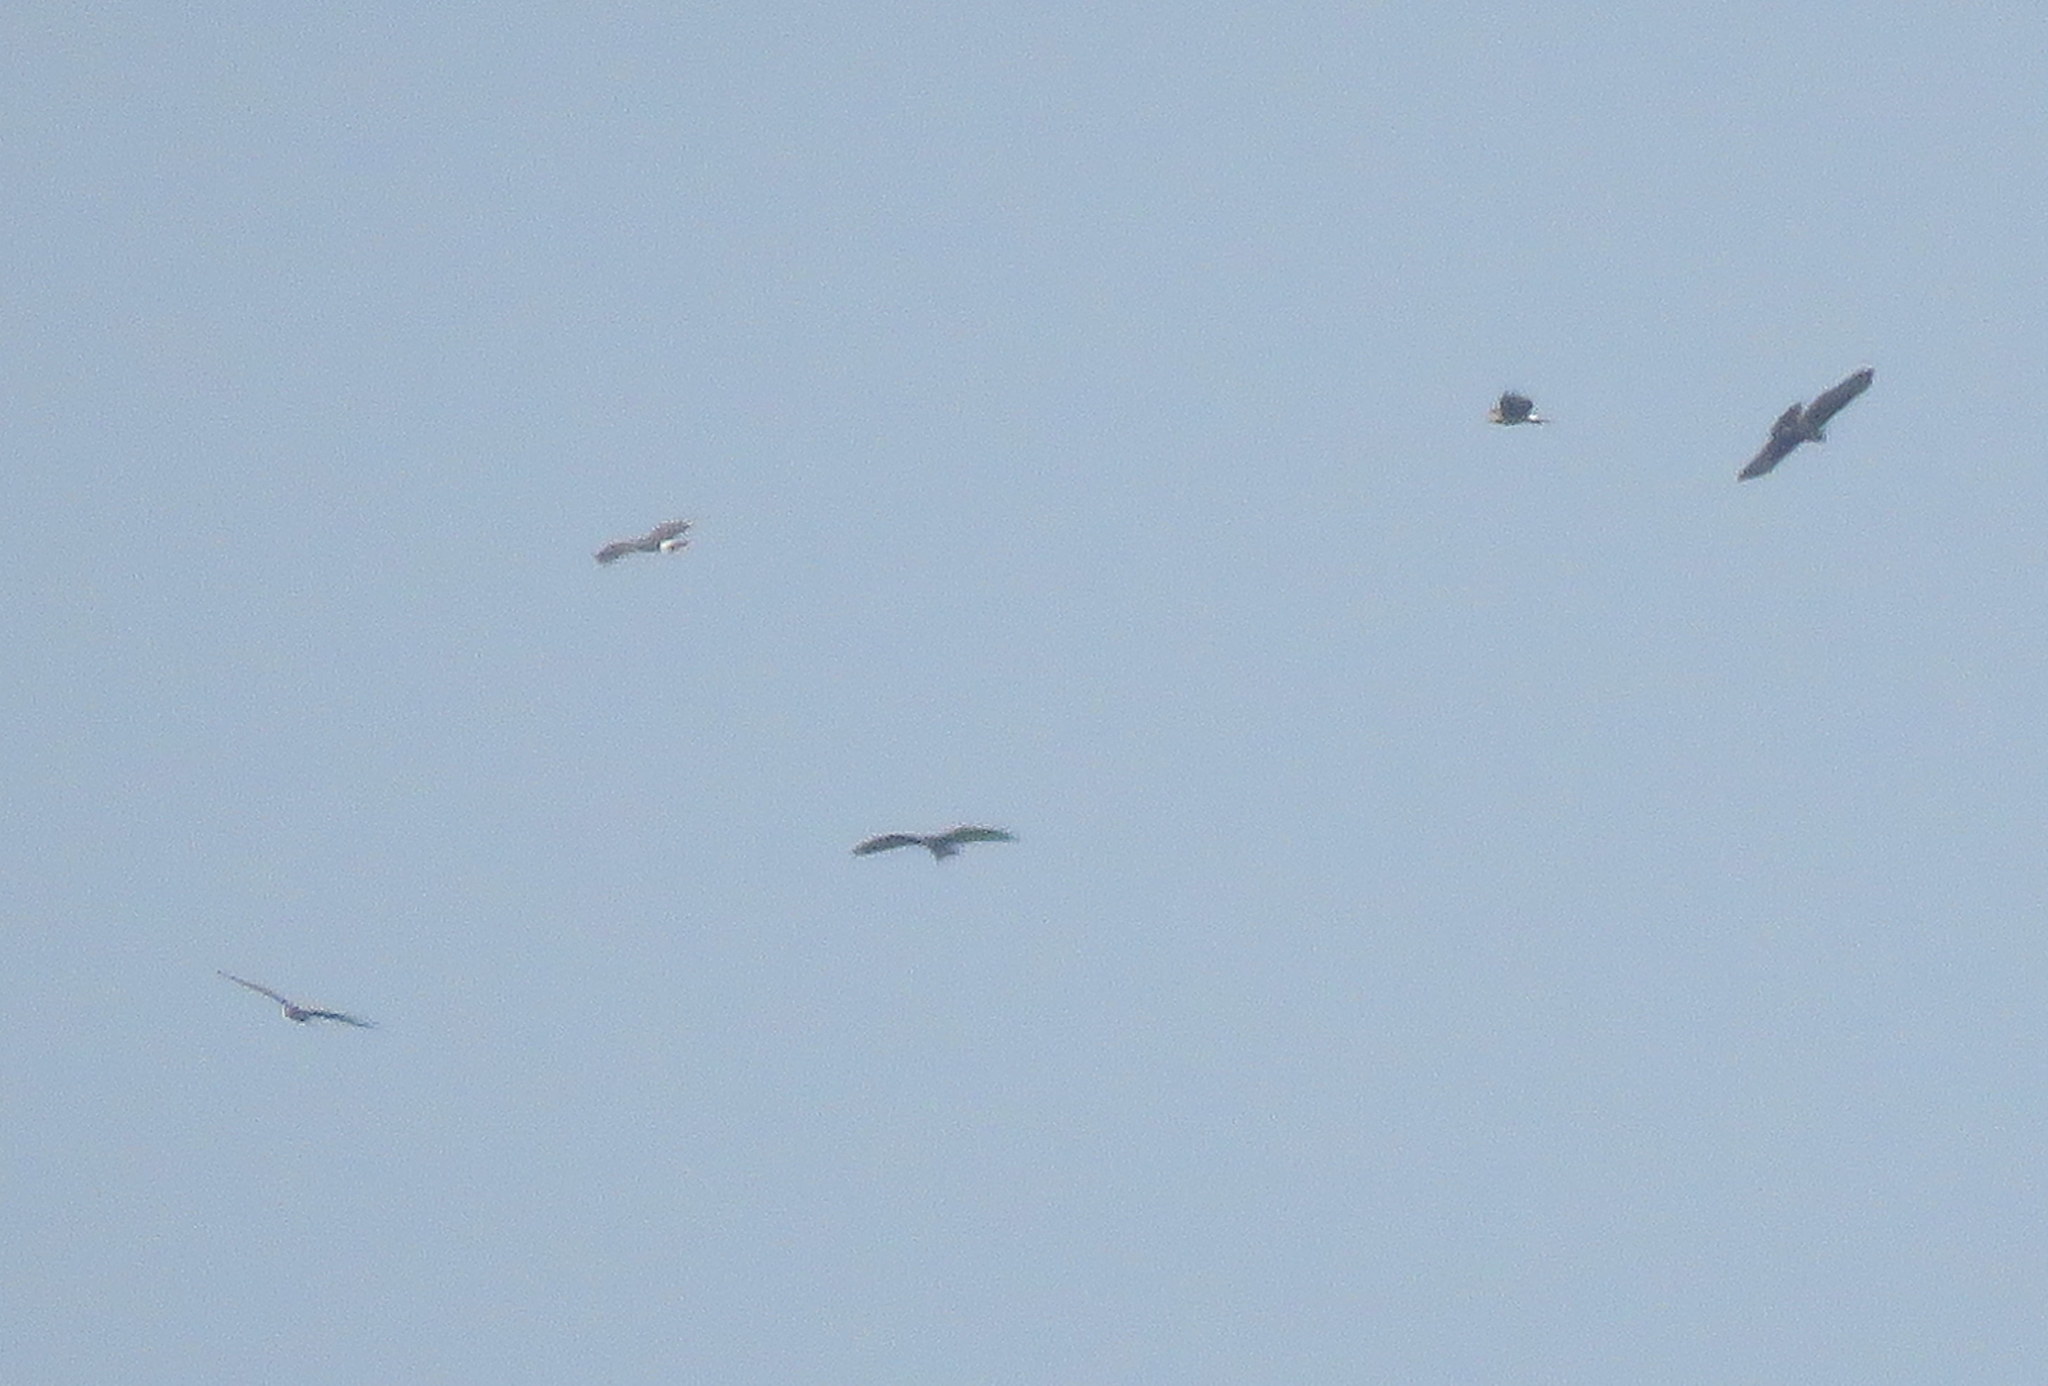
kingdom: Animalia
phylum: Chordata
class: Aves
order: Accipitriformes
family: Accipitridae
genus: Rostrhamus
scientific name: Rostrhamus sociabilis
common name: Snail kite
